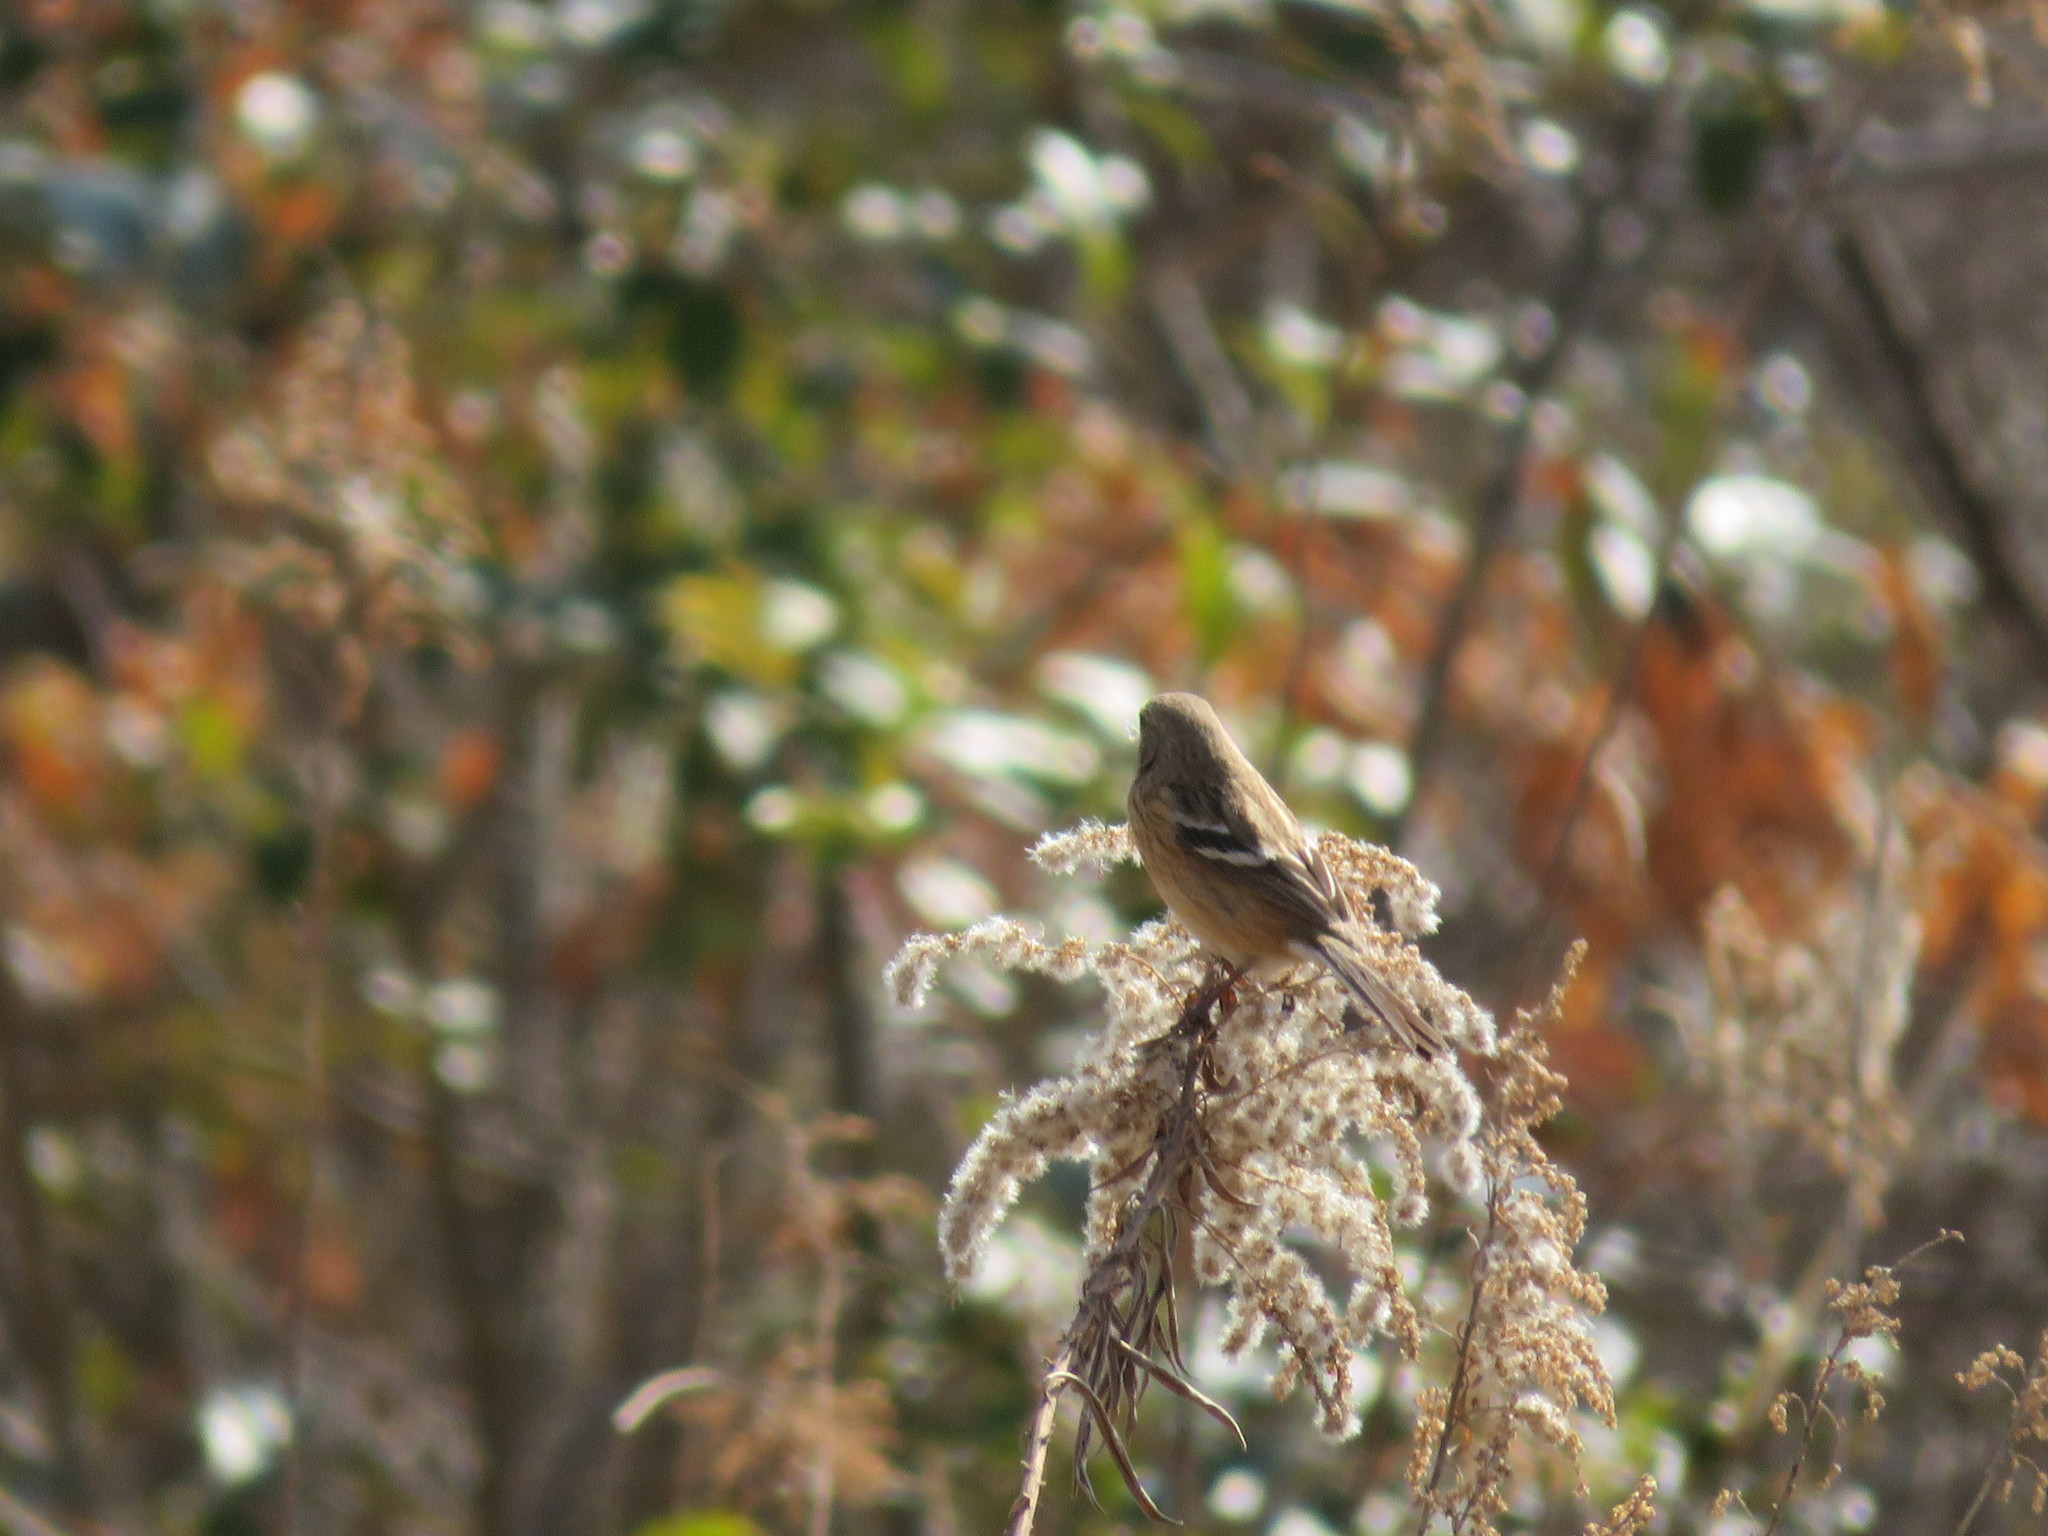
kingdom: Animalia
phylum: Chordata
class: Aves
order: Passeriformes
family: Fringillidae
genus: Carpodacus
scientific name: Carpodacus sibiricus
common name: Long-tailed rosefinch
